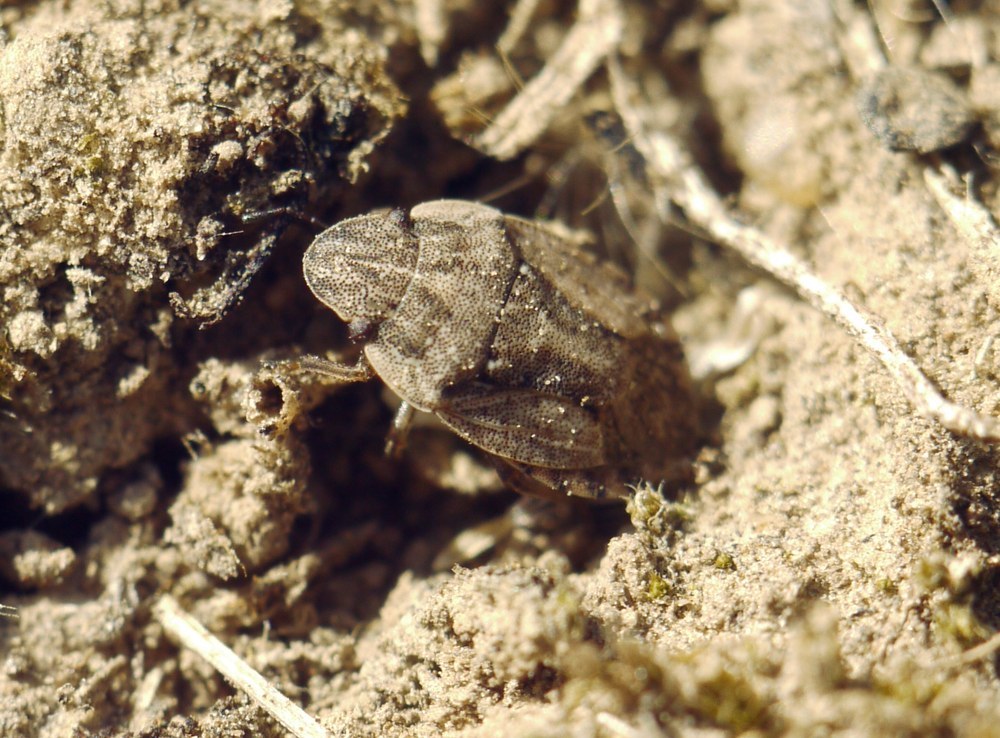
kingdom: Animalia
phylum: Arthropoda
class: Insecta
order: Hemiptera
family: Pentatomidae
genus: Sciocoris
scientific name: Sciocoris cursitans
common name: Sandrunner
